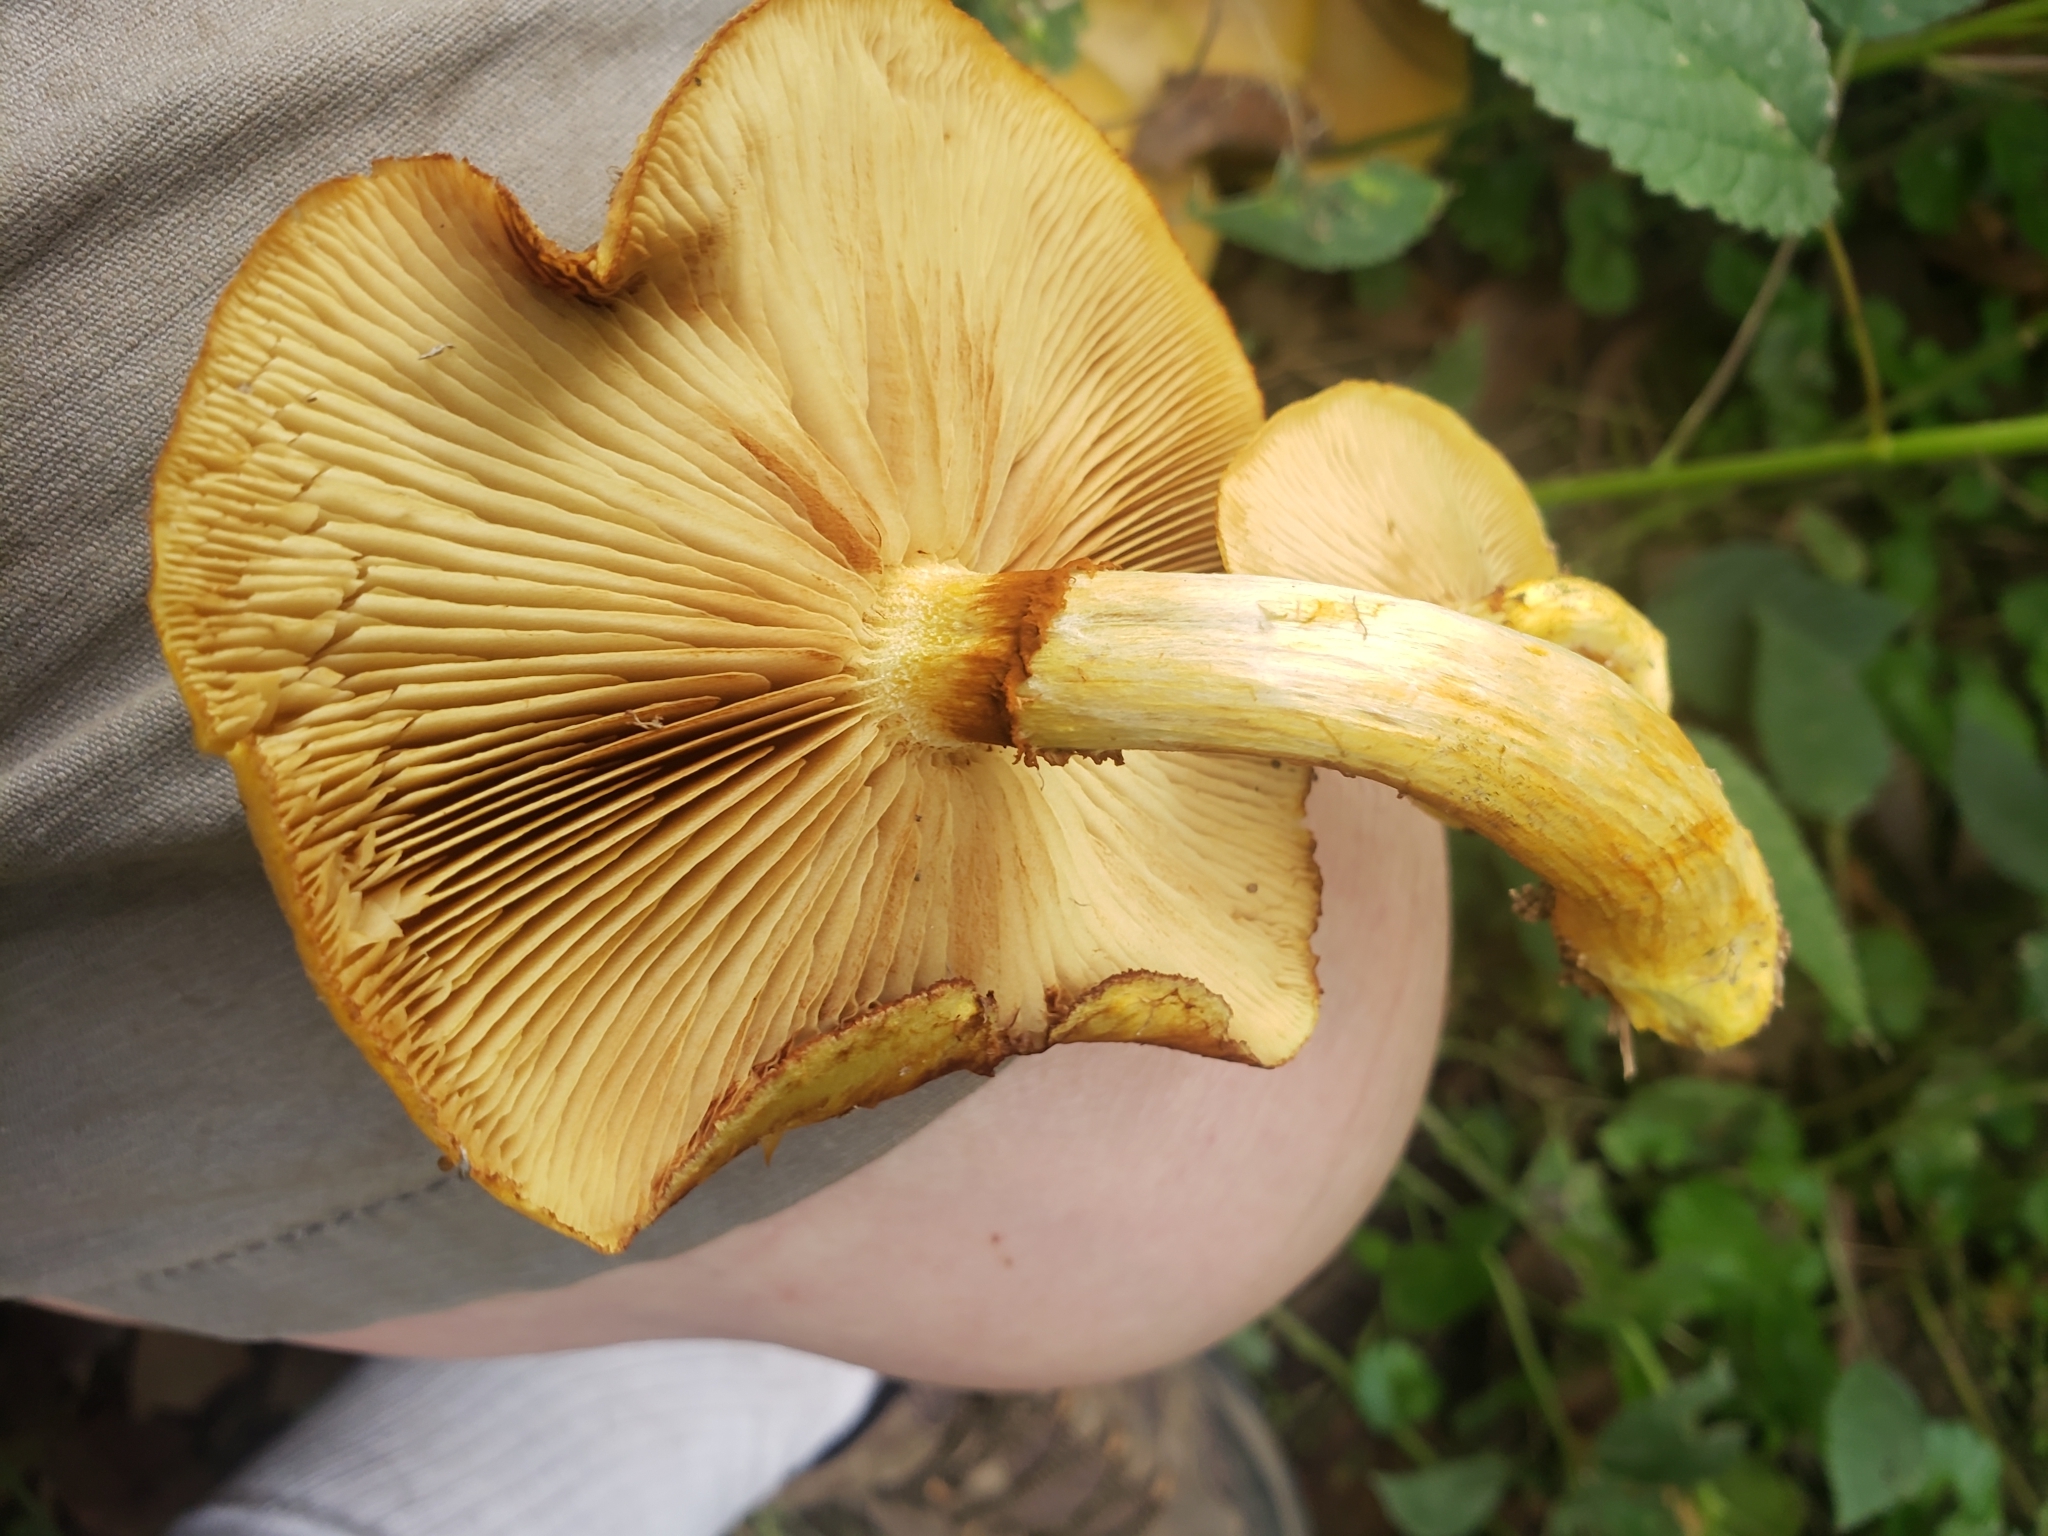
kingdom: Fungi
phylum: Basidiomycota
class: Agaricomycetes
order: Agaricales
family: Hymenogastraceae
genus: Gymnopilus
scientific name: Gymnopilus luteus
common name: Yellow gymnopilus
